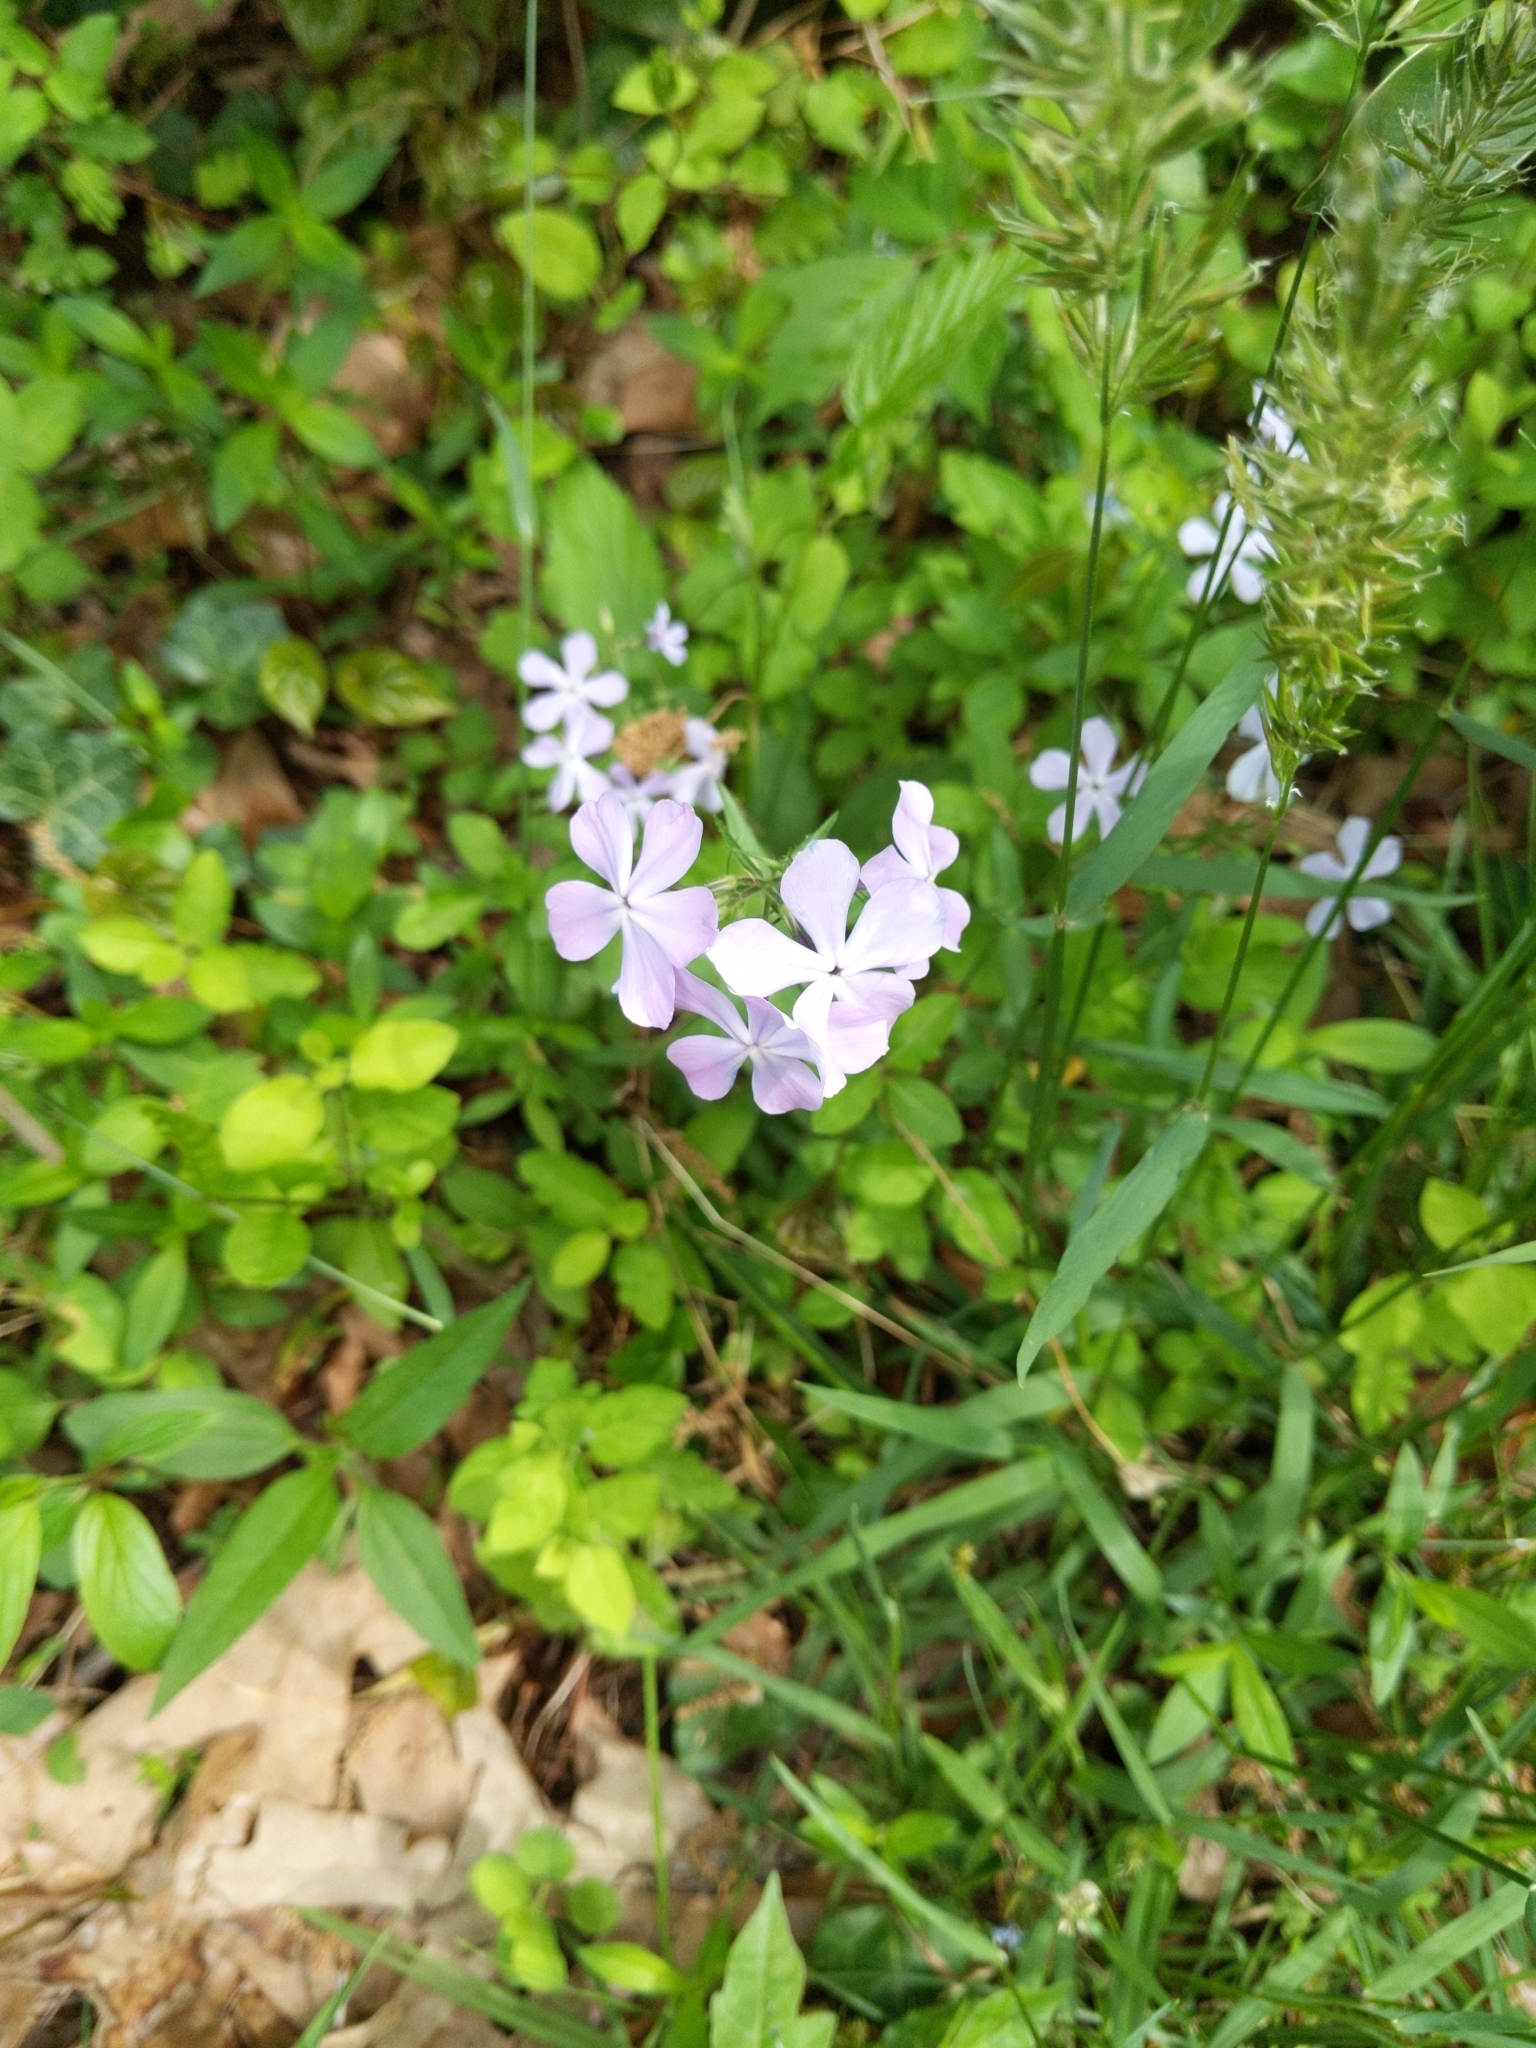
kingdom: Plantae
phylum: Tracheophyta
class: Magnoliopsida
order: Ericales
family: Polemoniaceae
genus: Phlox
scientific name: Phlox divaricata
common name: Blue phlox
